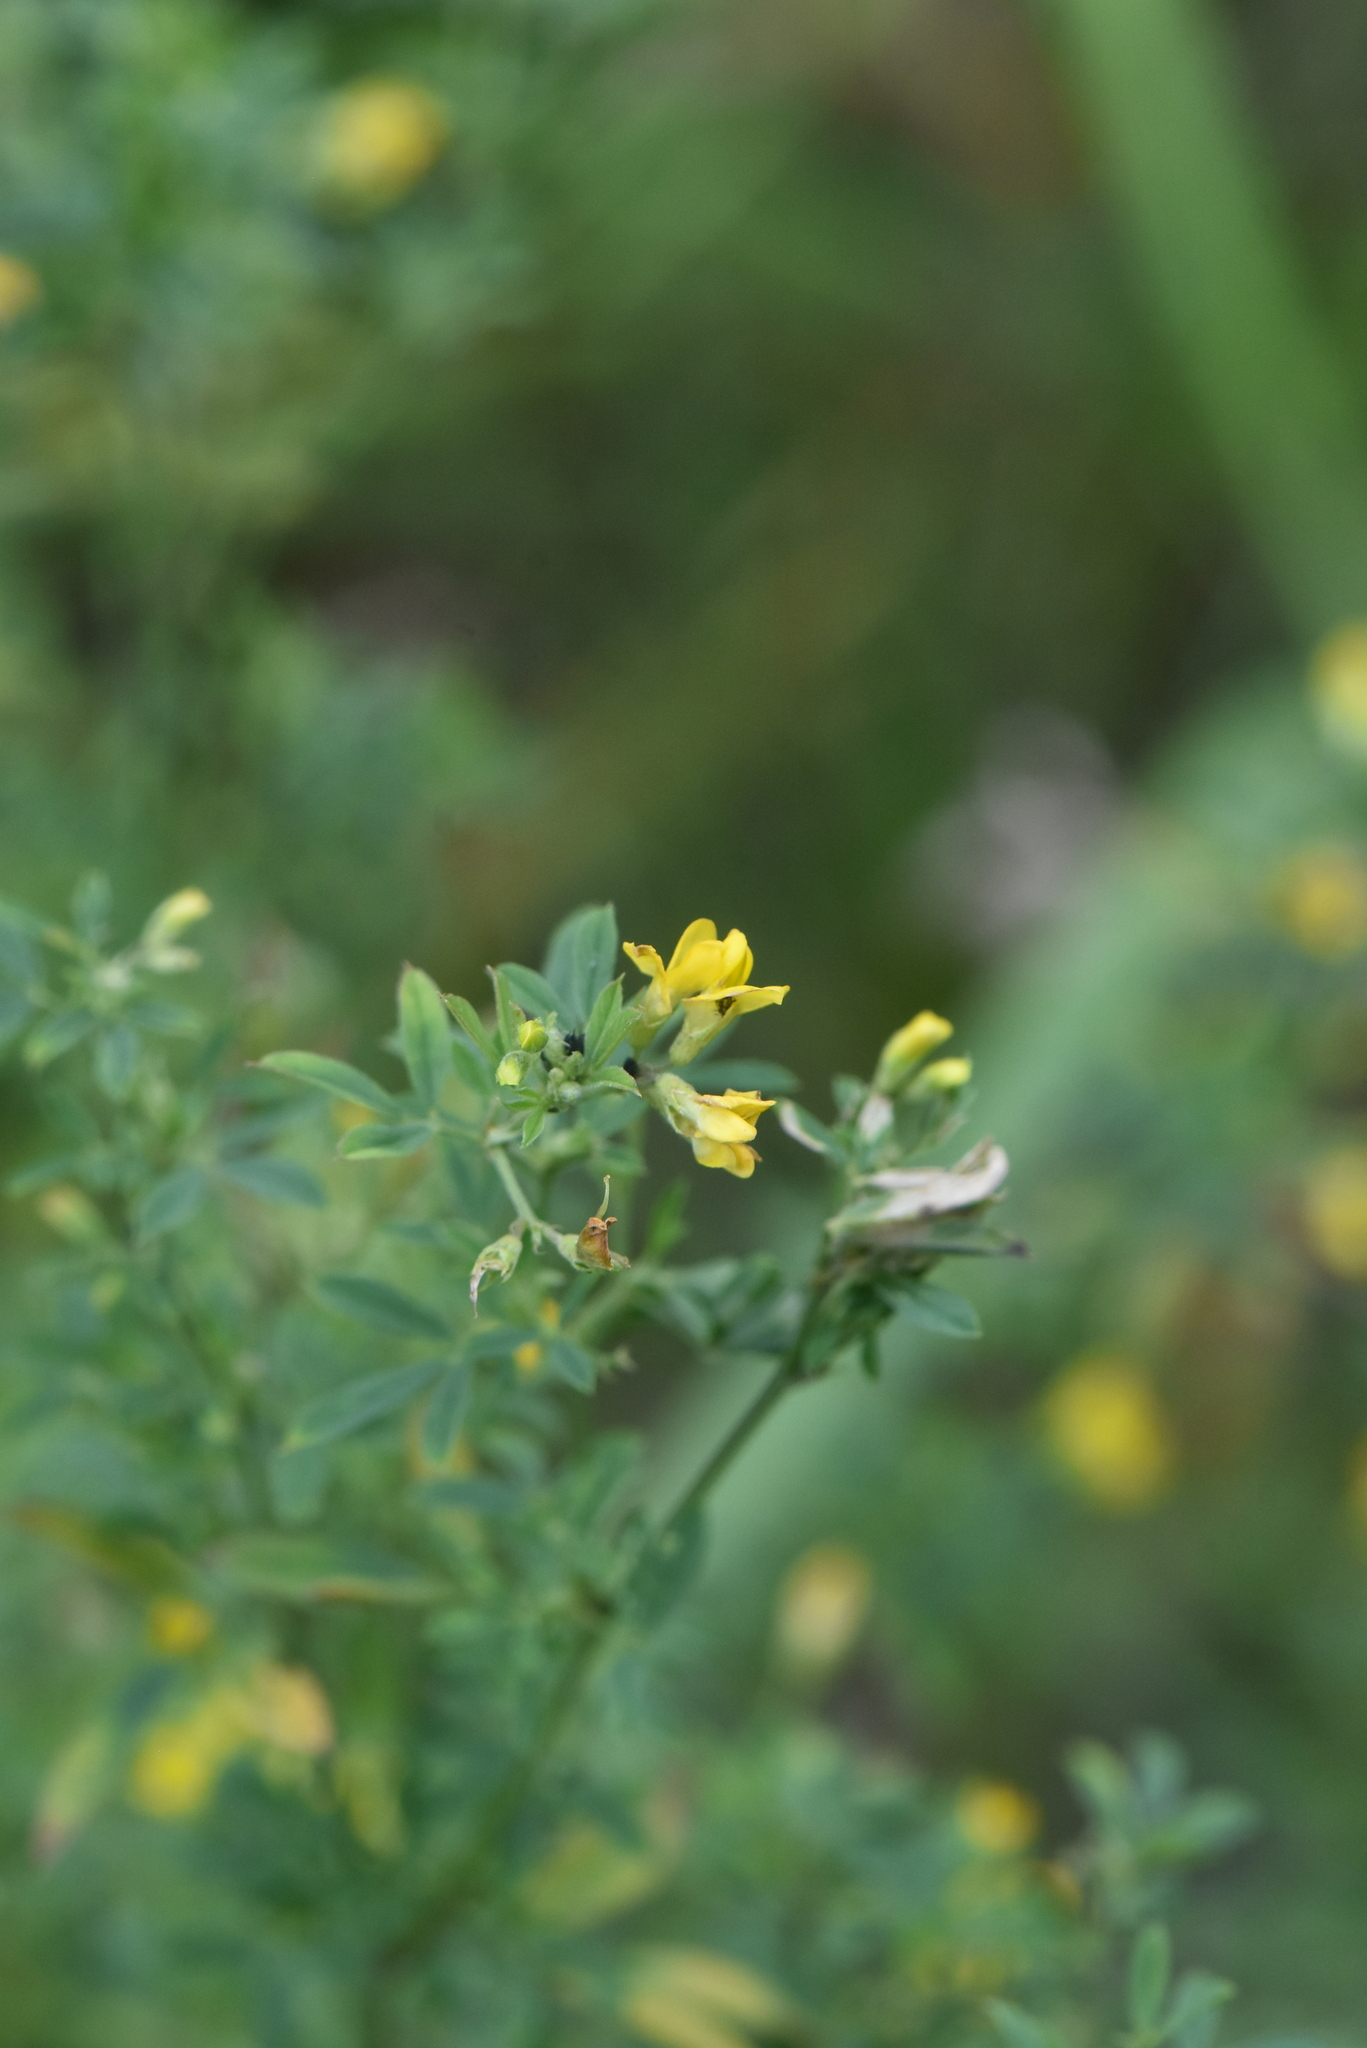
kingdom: Plantae
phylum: Tracheophyta
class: Magnoliopsida
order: Fabales
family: Fabaceae
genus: Medicago
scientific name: Medicago falcata
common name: Sickle medick
